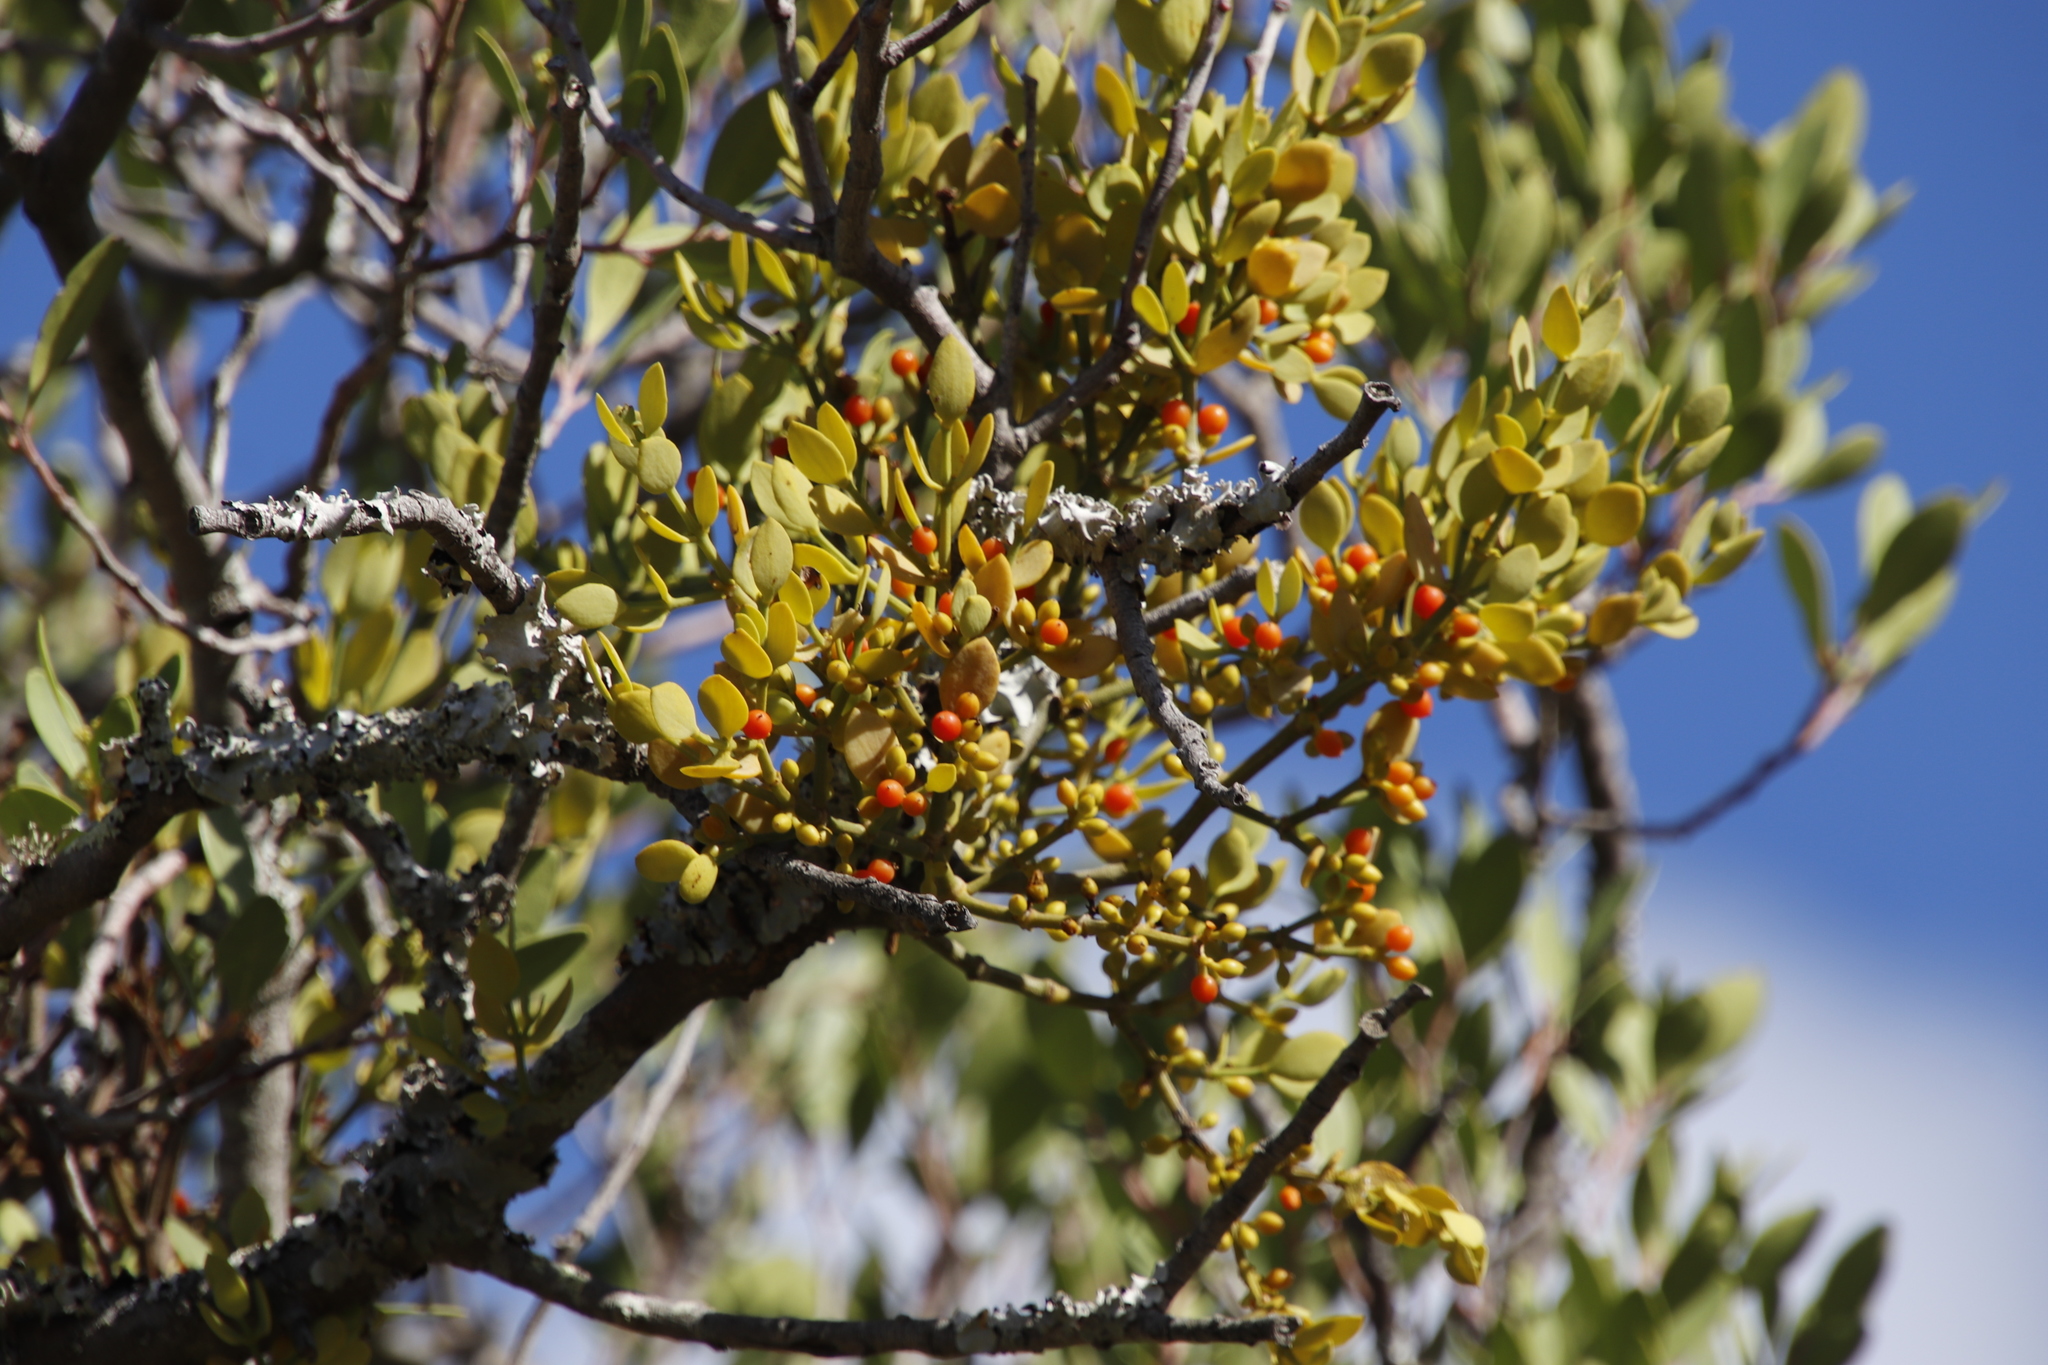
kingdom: Plantae
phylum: Tracheophyta
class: Magnoliopsida
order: Santalales
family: Viscaceae
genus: Viscum
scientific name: Viscum pauciflorum
